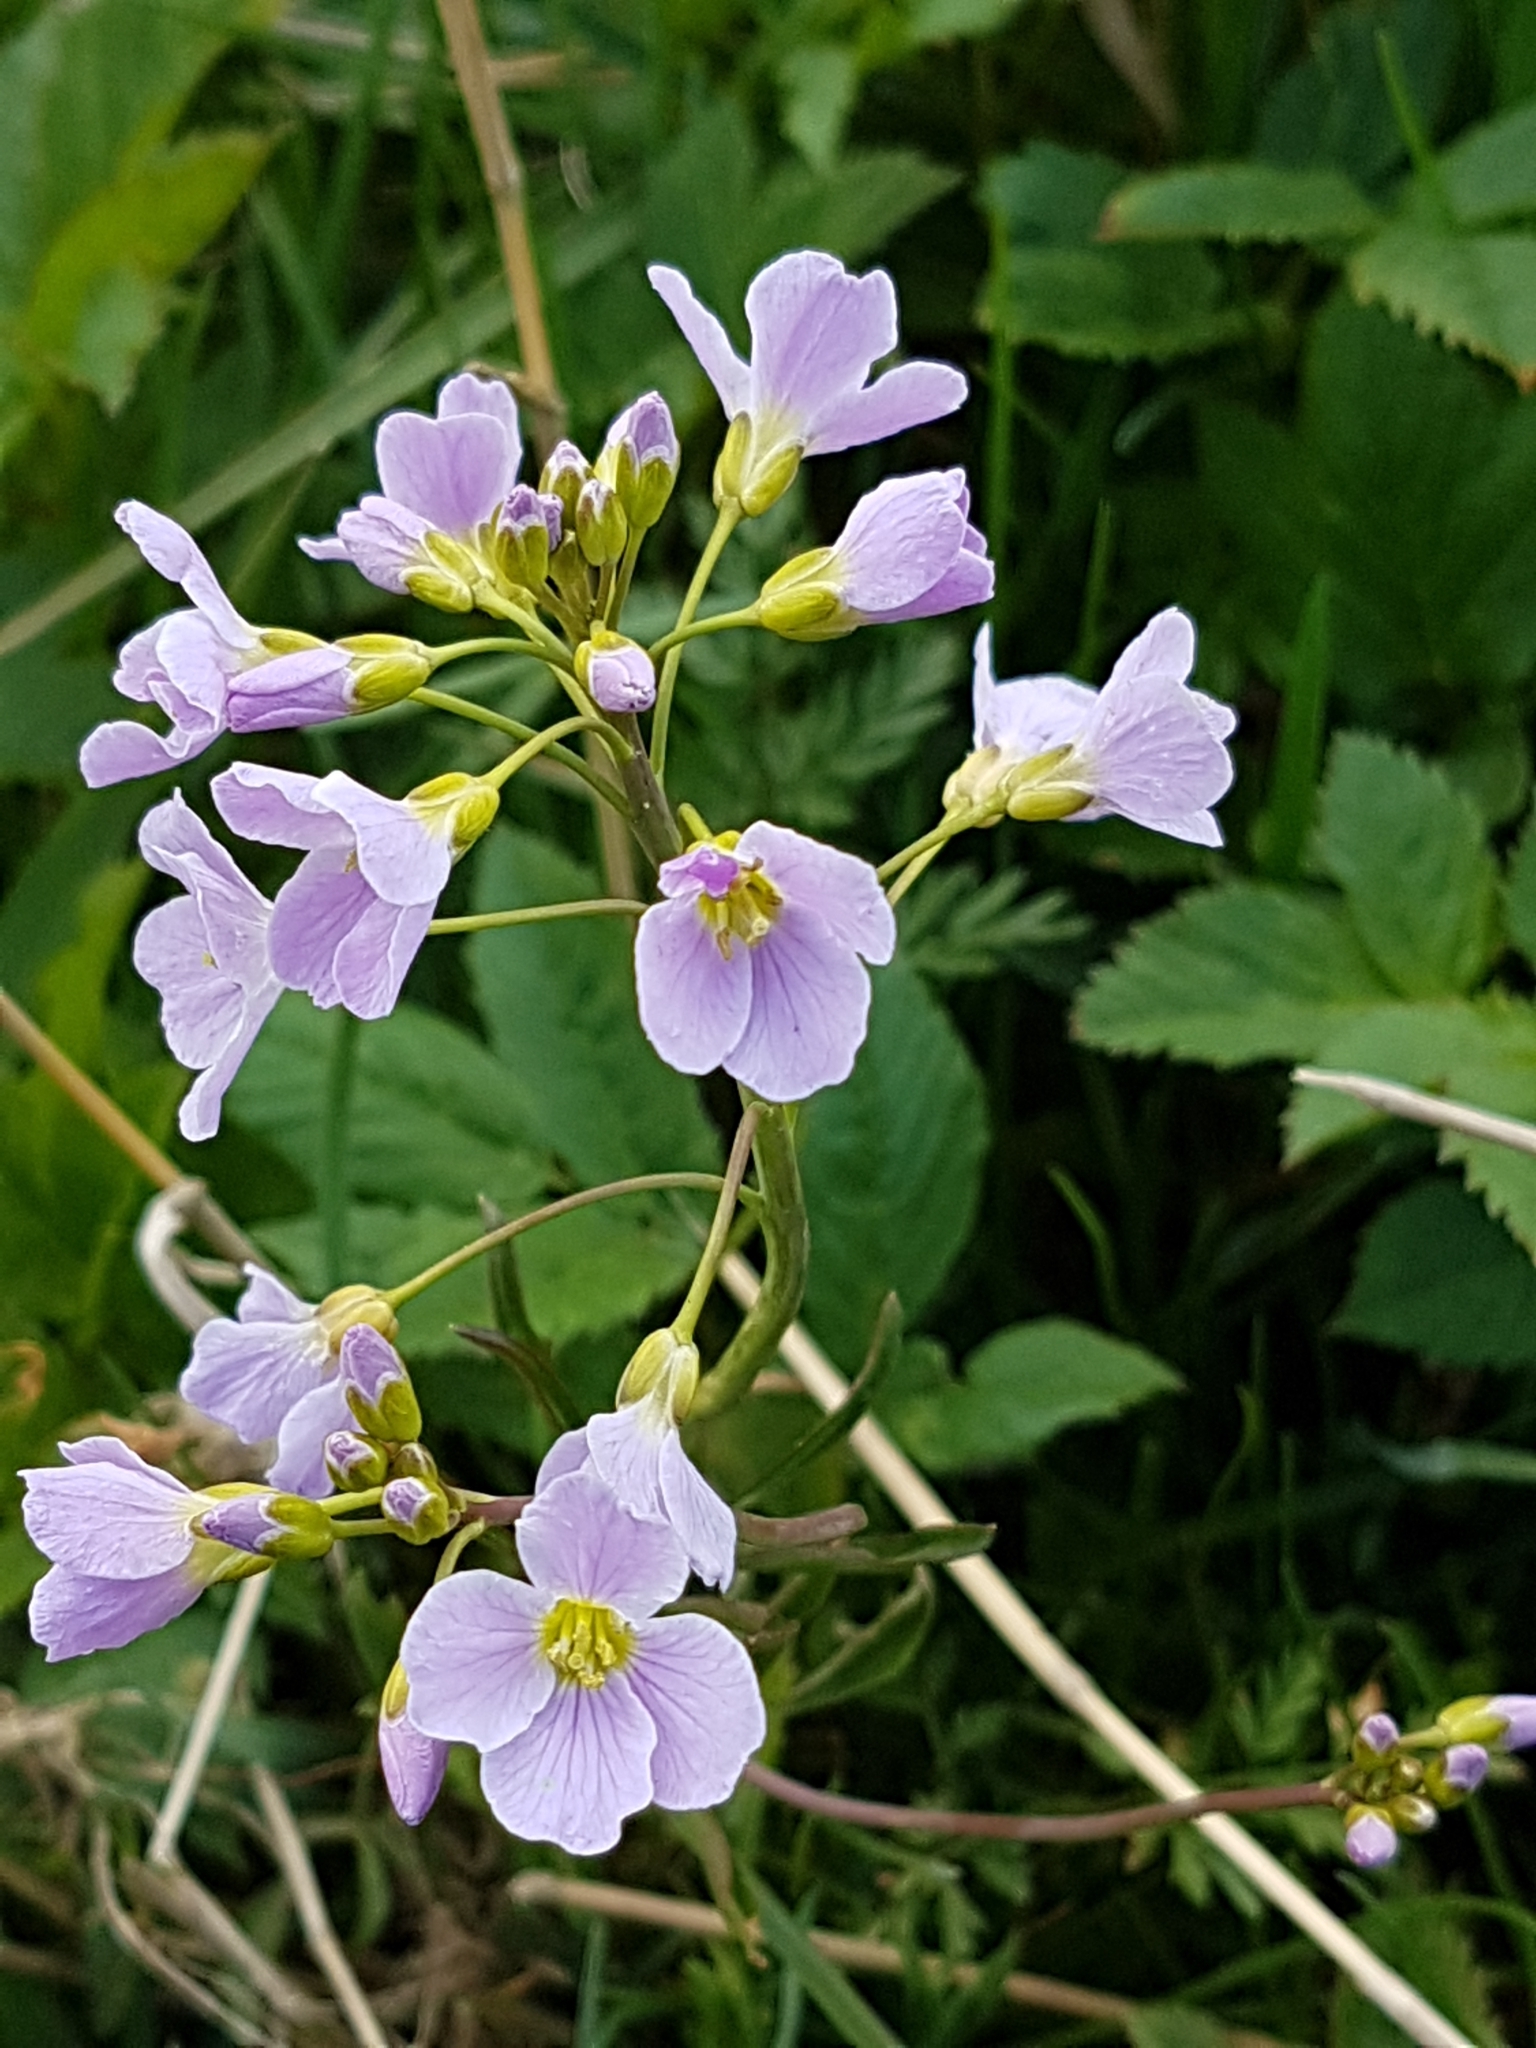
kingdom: Plantae
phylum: Tracheophyta
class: Magnoliopsida
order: Brassicales
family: Brassicaceae
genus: Cardamine
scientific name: Cardamine pratensis
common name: Cuckoo flower
